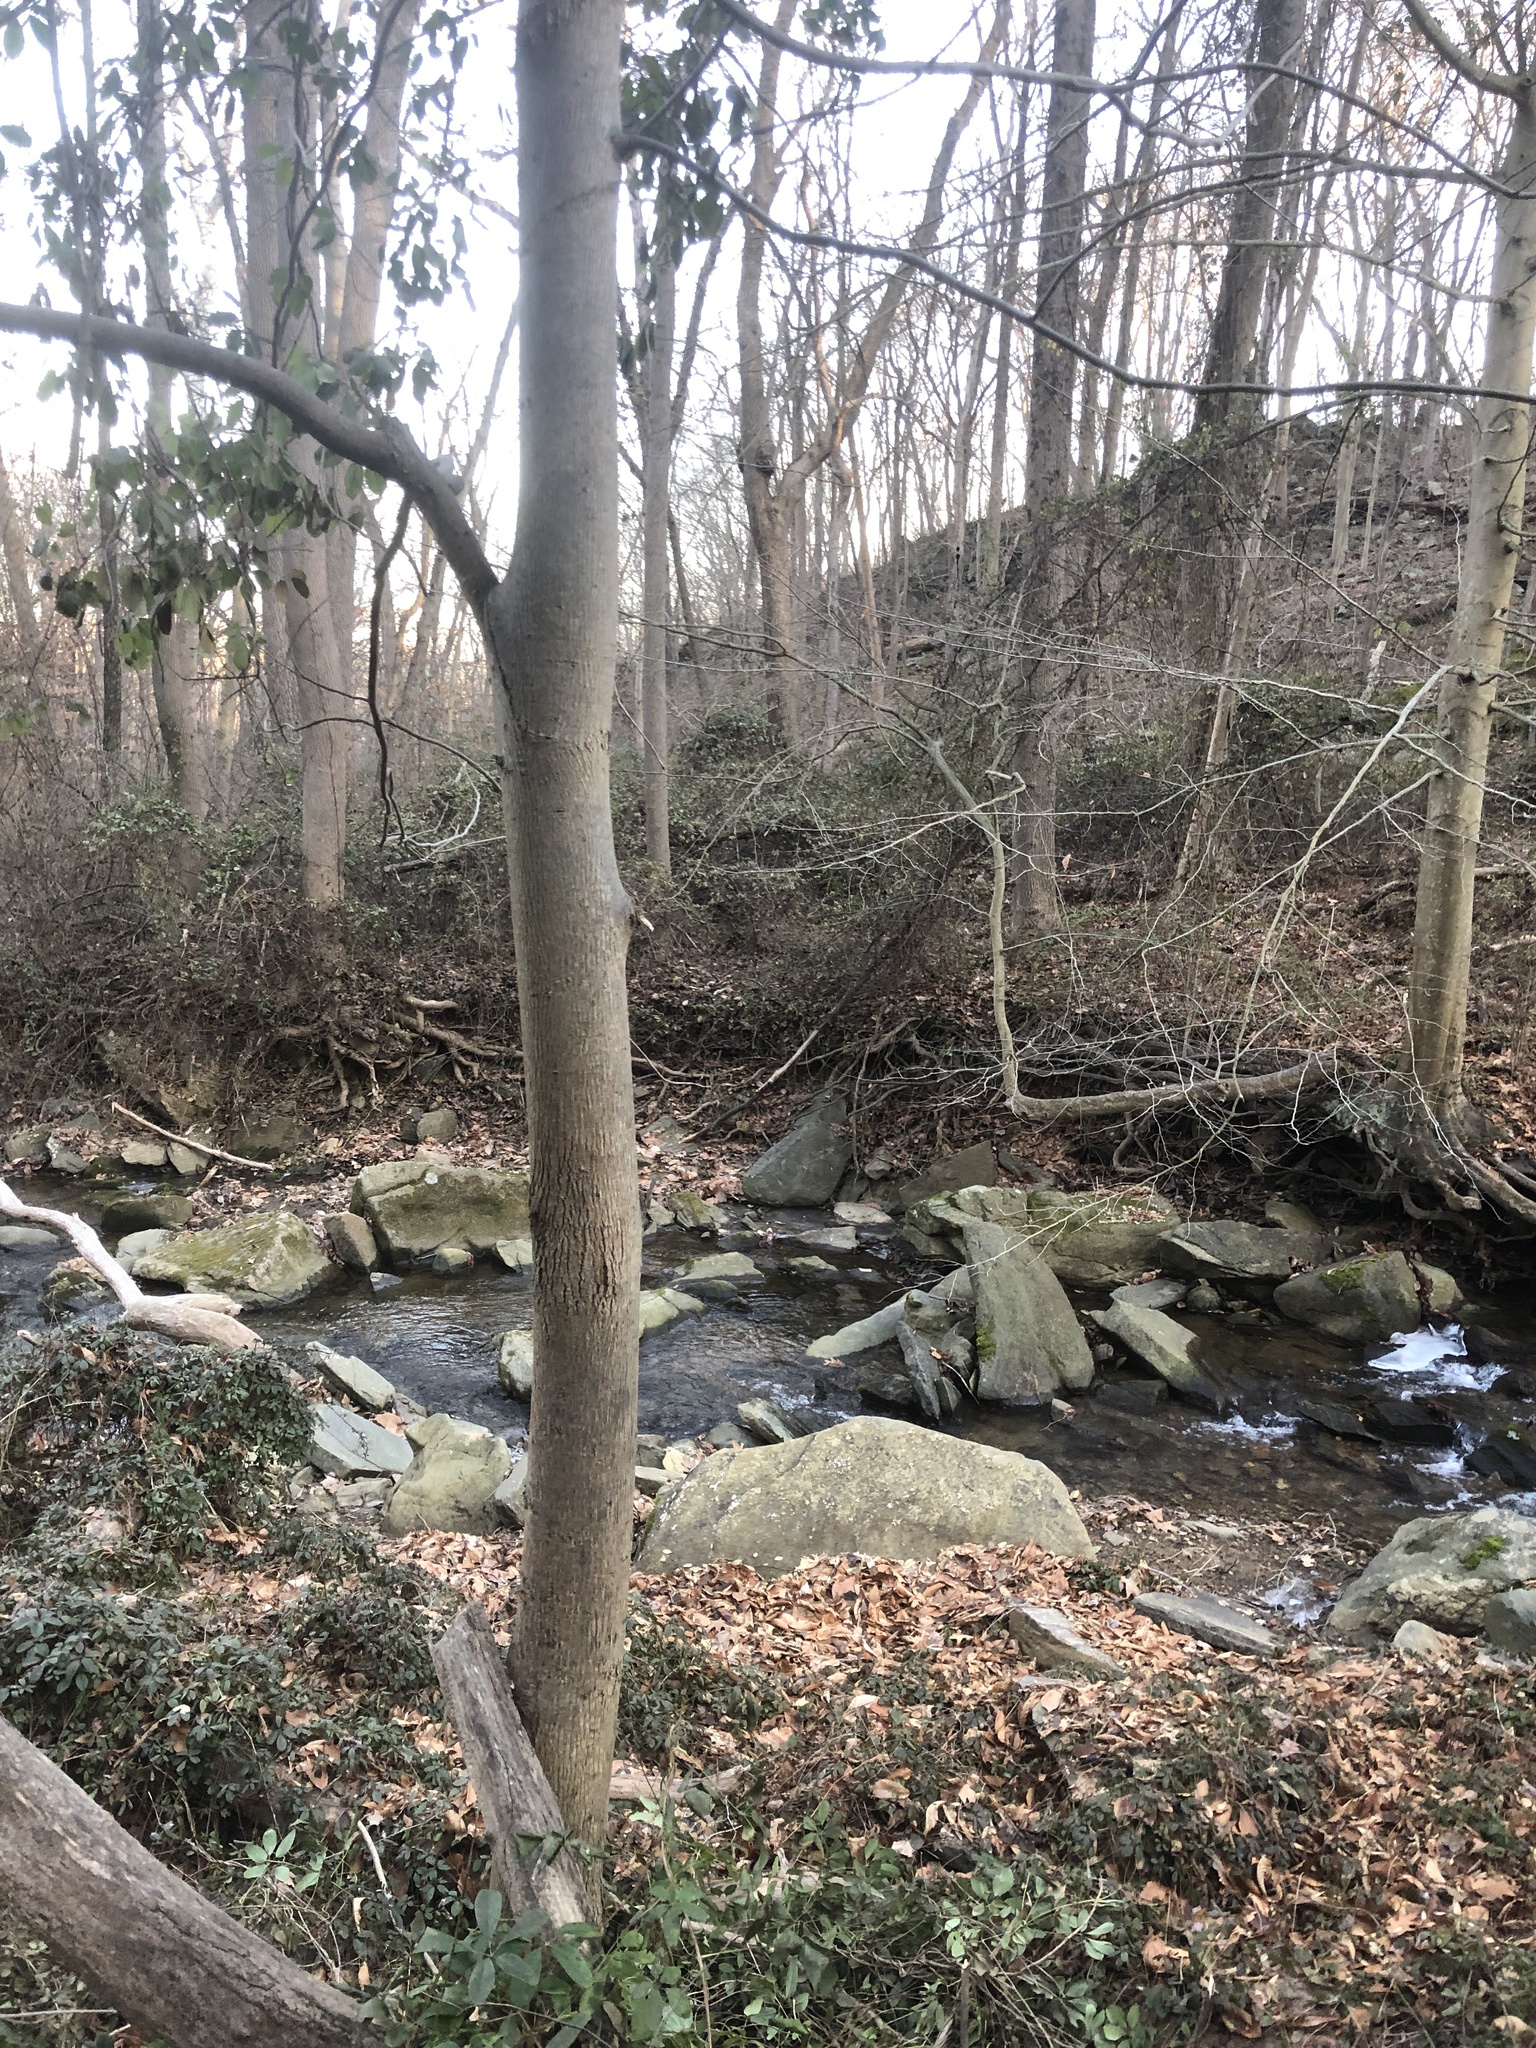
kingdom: Plantae
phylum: Tracheophyta
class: Magnoliopsida
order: Fagales
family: Juglandaceae
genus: Carya
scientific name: Carya cordiformis
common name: Bitternut hickory
